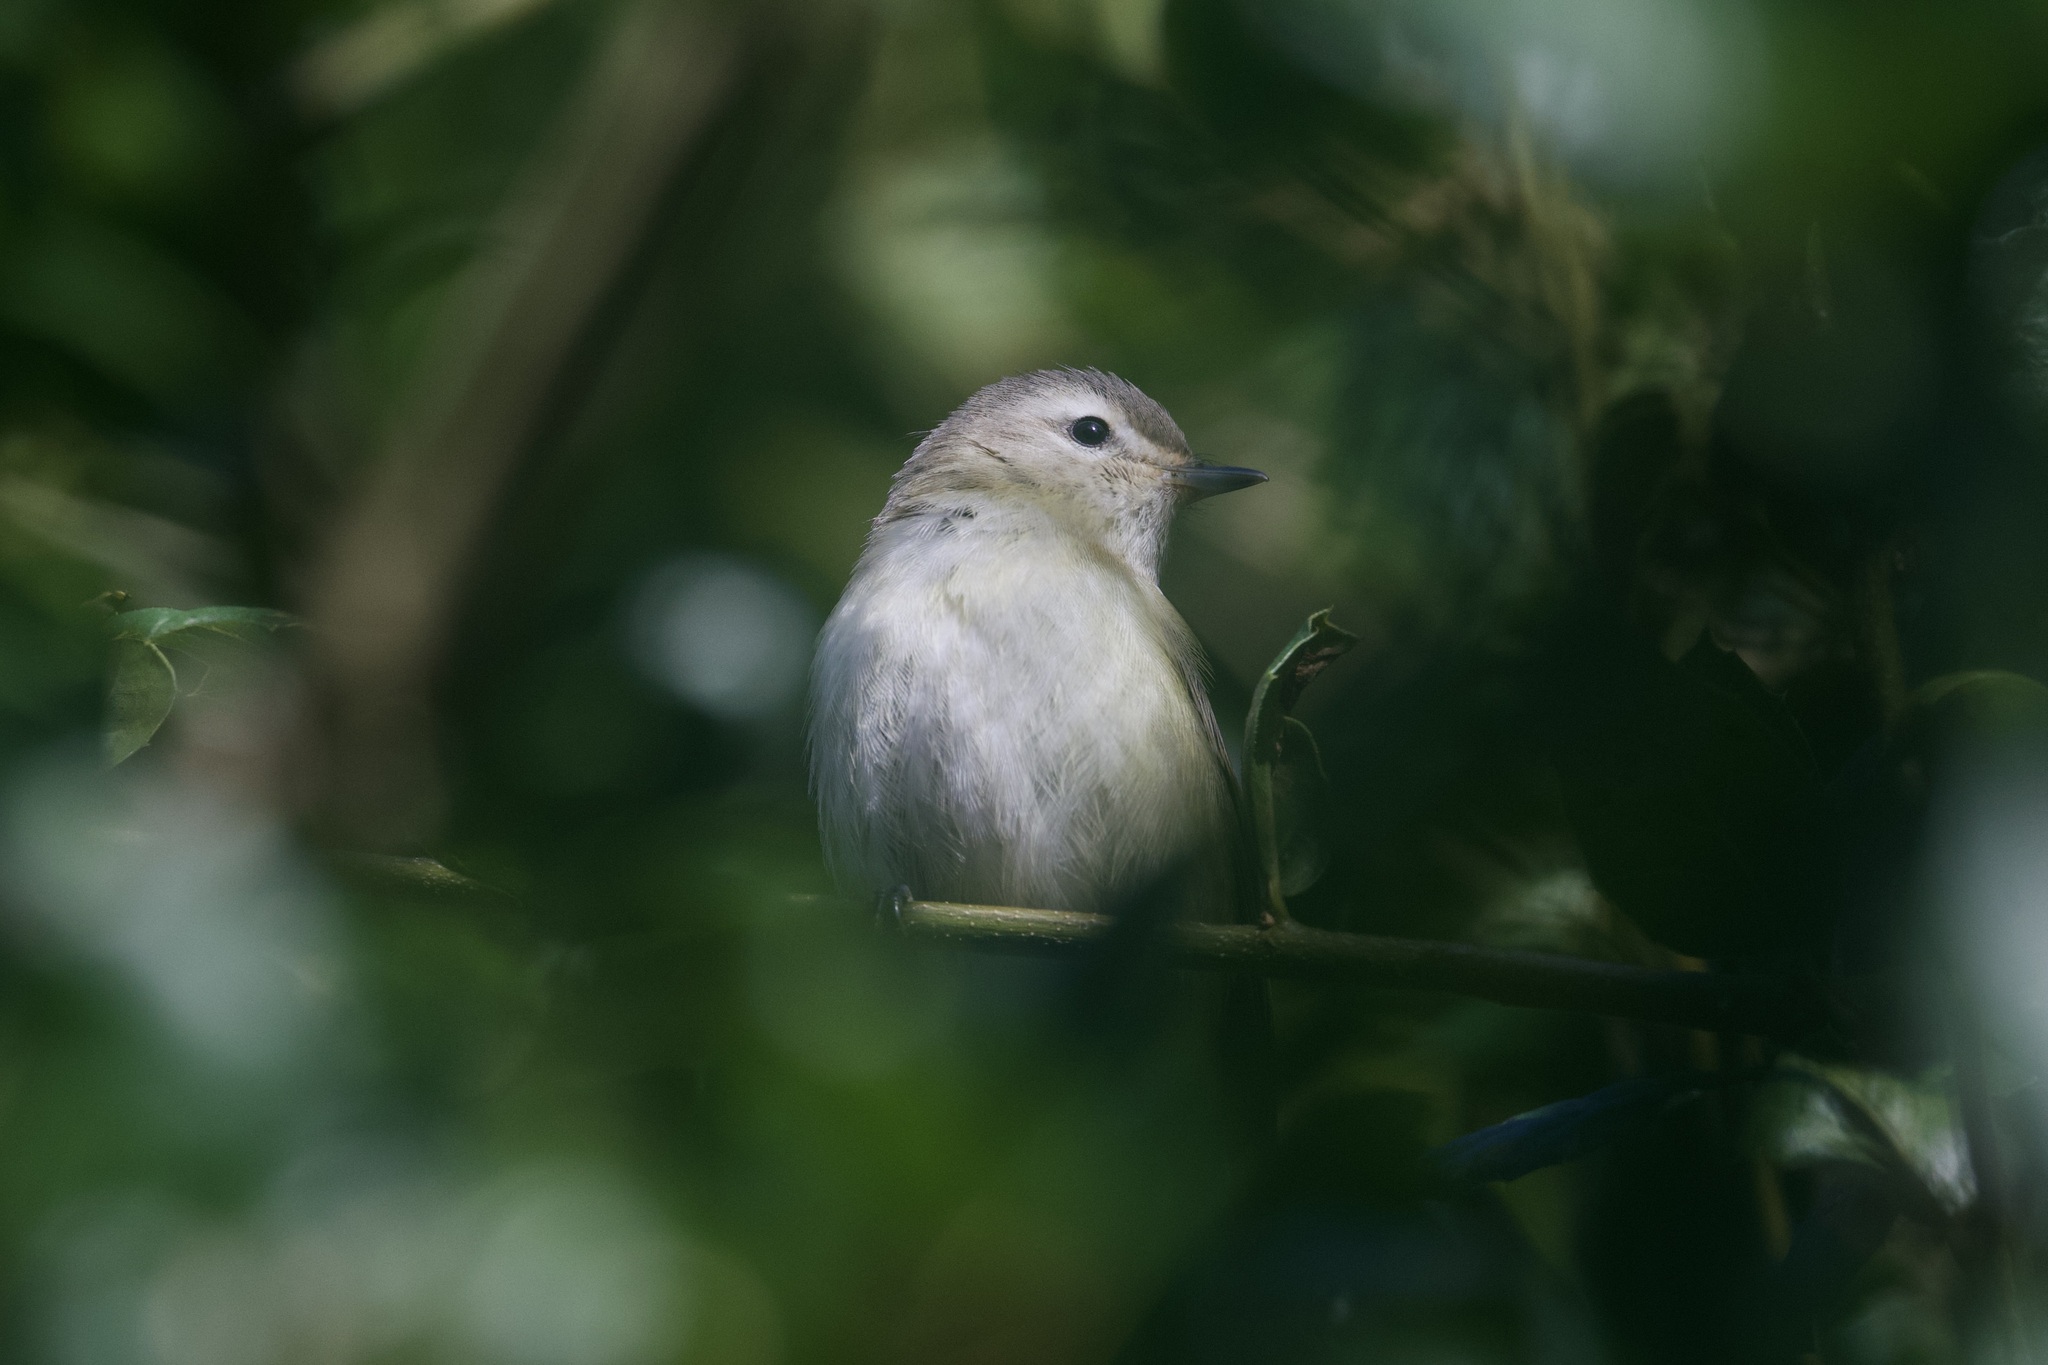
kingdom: Animalia
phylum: Chordata
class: Aves
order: Passeriformes
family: Vireonidae
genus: Vireo
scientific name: Vireo gilvus
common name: Warbling vireo
